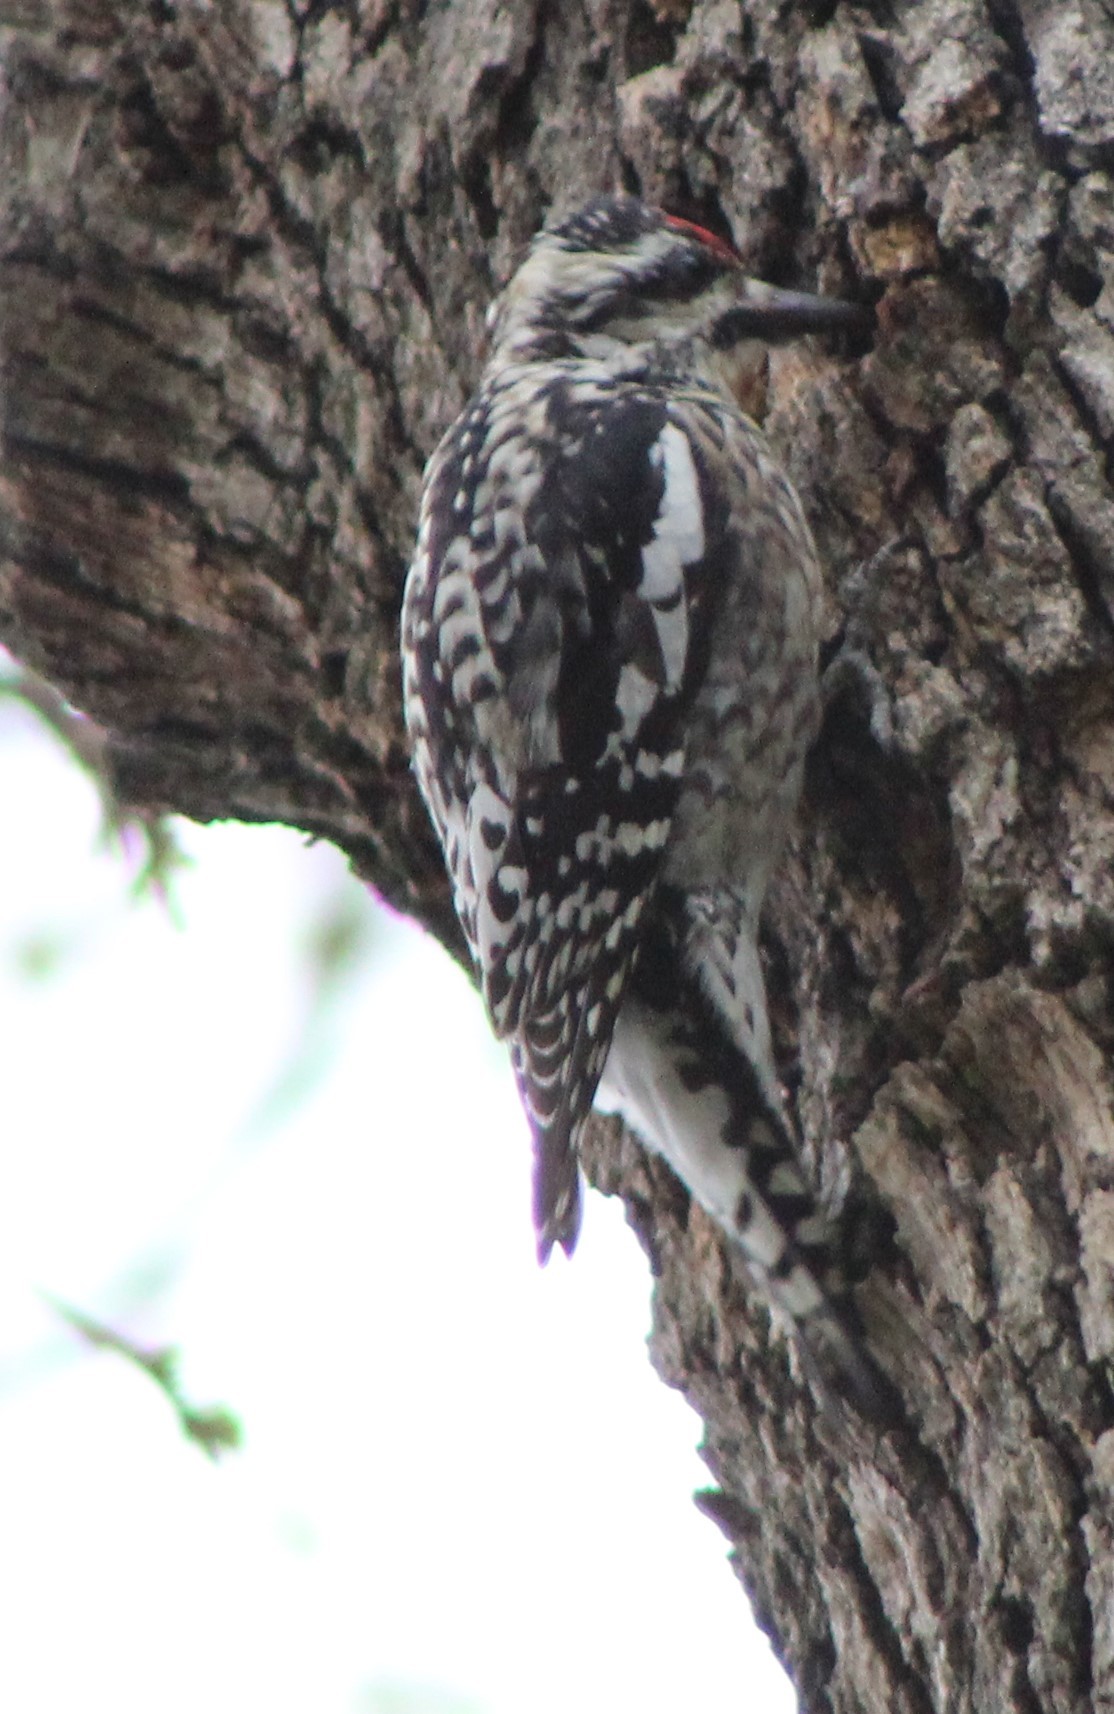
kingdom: Animalia
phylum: Chordata
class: Aves
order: Piciformes
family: Picidae
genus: Sphyrapicus
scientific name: Sphyrapicus varius
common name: Yellow-bellied sapsucker
